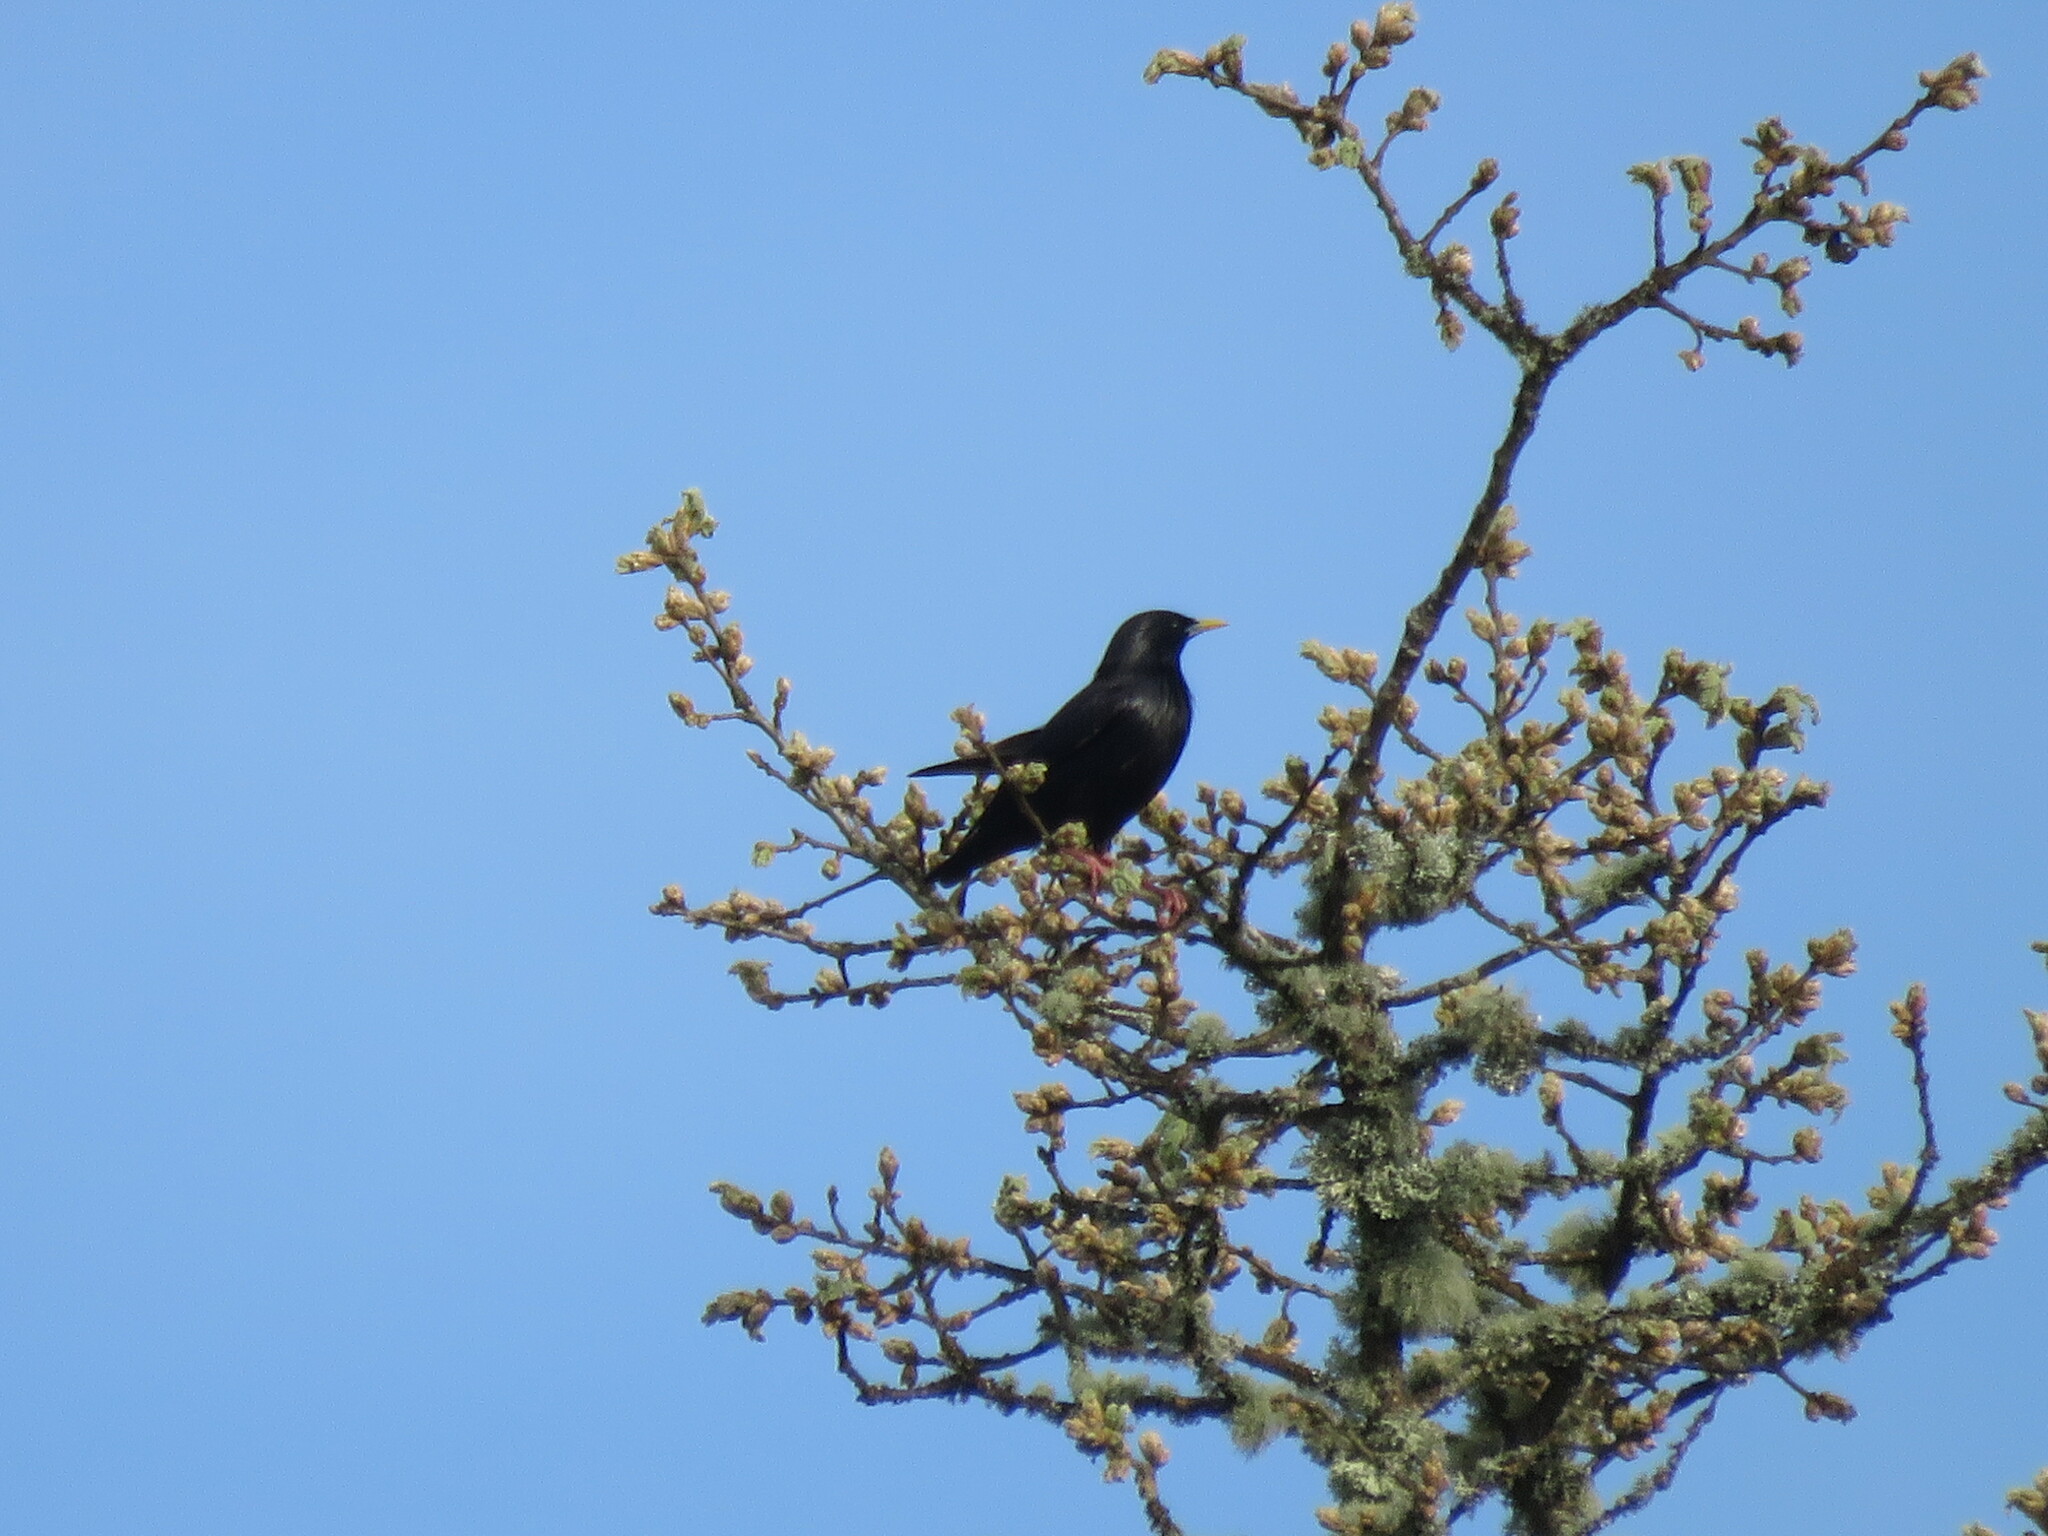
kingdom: Animalia
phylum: Chordata
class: Aves
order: Passeriformes
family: Sturnidae
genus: Sturnus
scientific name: Sturnus unicolor
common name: Spotless starling
